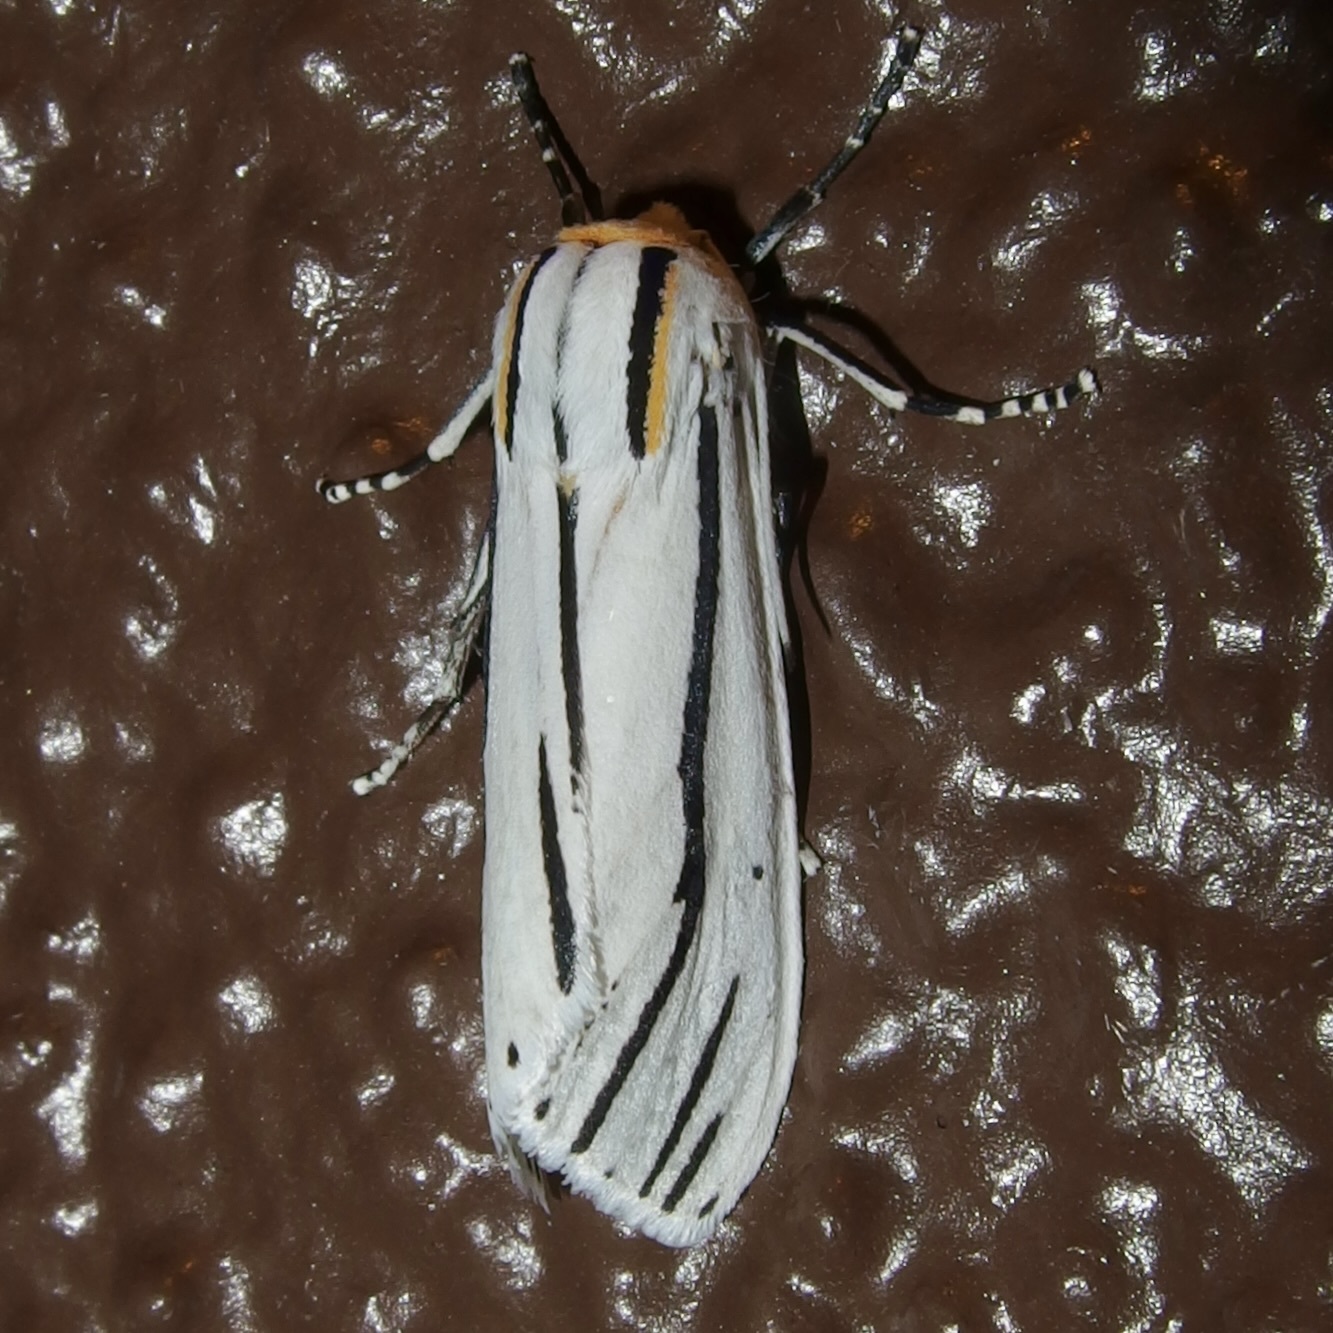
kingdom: Animalia
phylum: Arthropoda
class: Insecta
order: Lepidoptera
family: Erebidae
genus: Ectypia
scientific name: Ectypia clio
